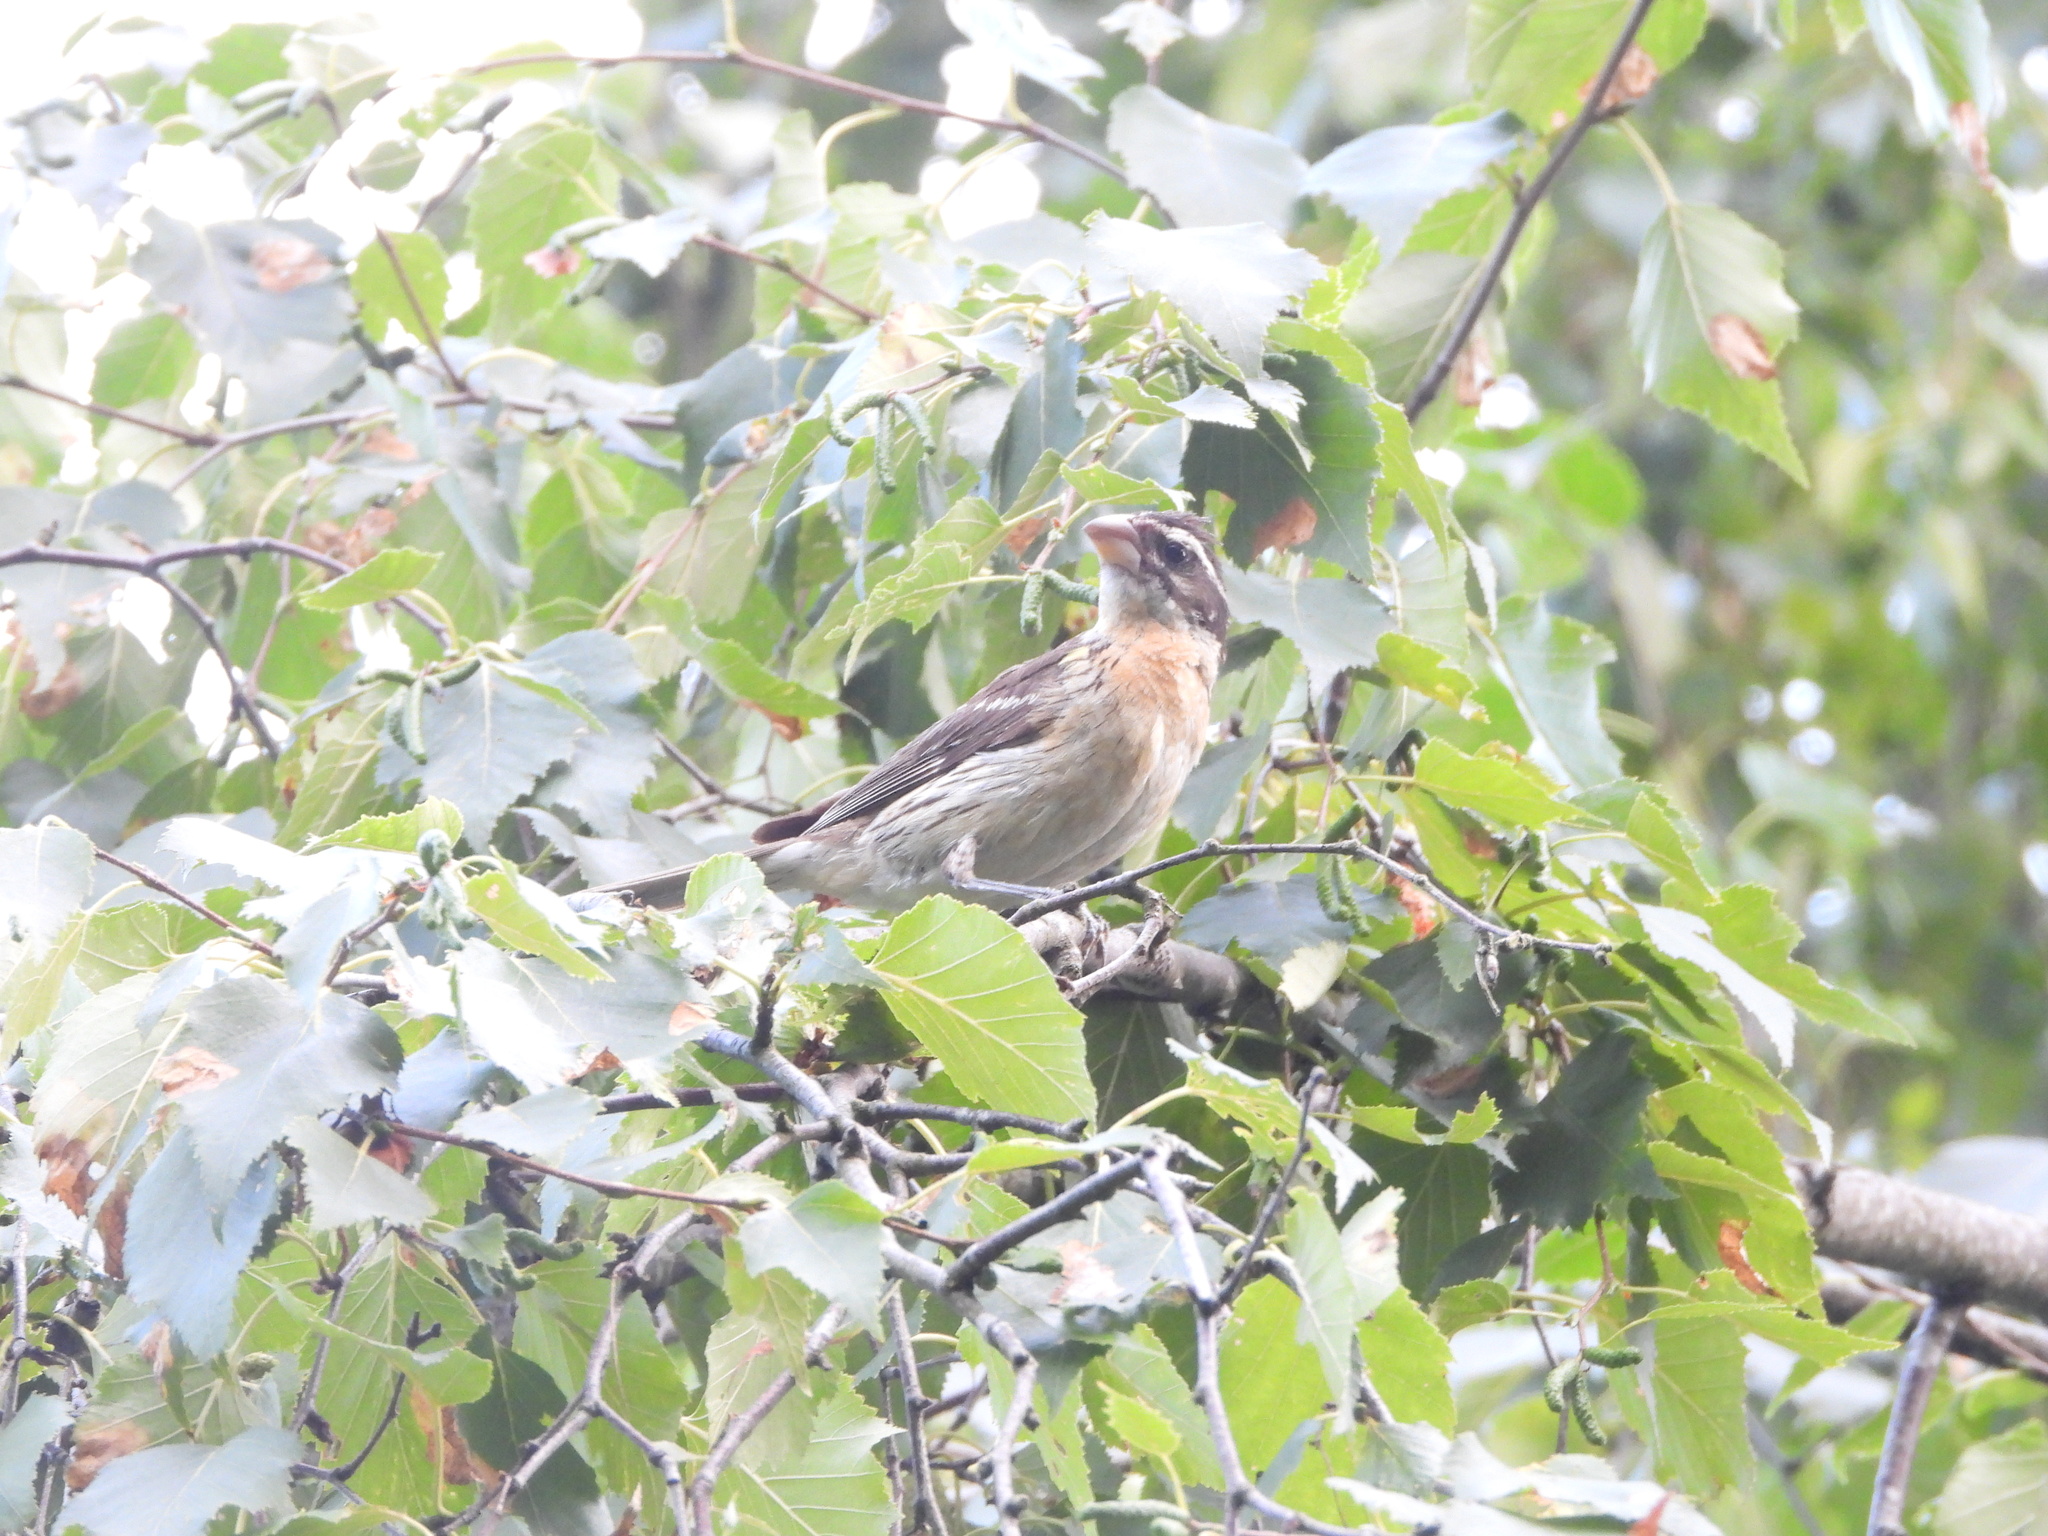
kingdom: Animalia
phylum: Chordata
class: Aves
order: Passeriformes
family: Cardinalidae
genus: Pheucticus
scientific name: Pheucticus melanocephalus
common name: Black-headed grosbeak
